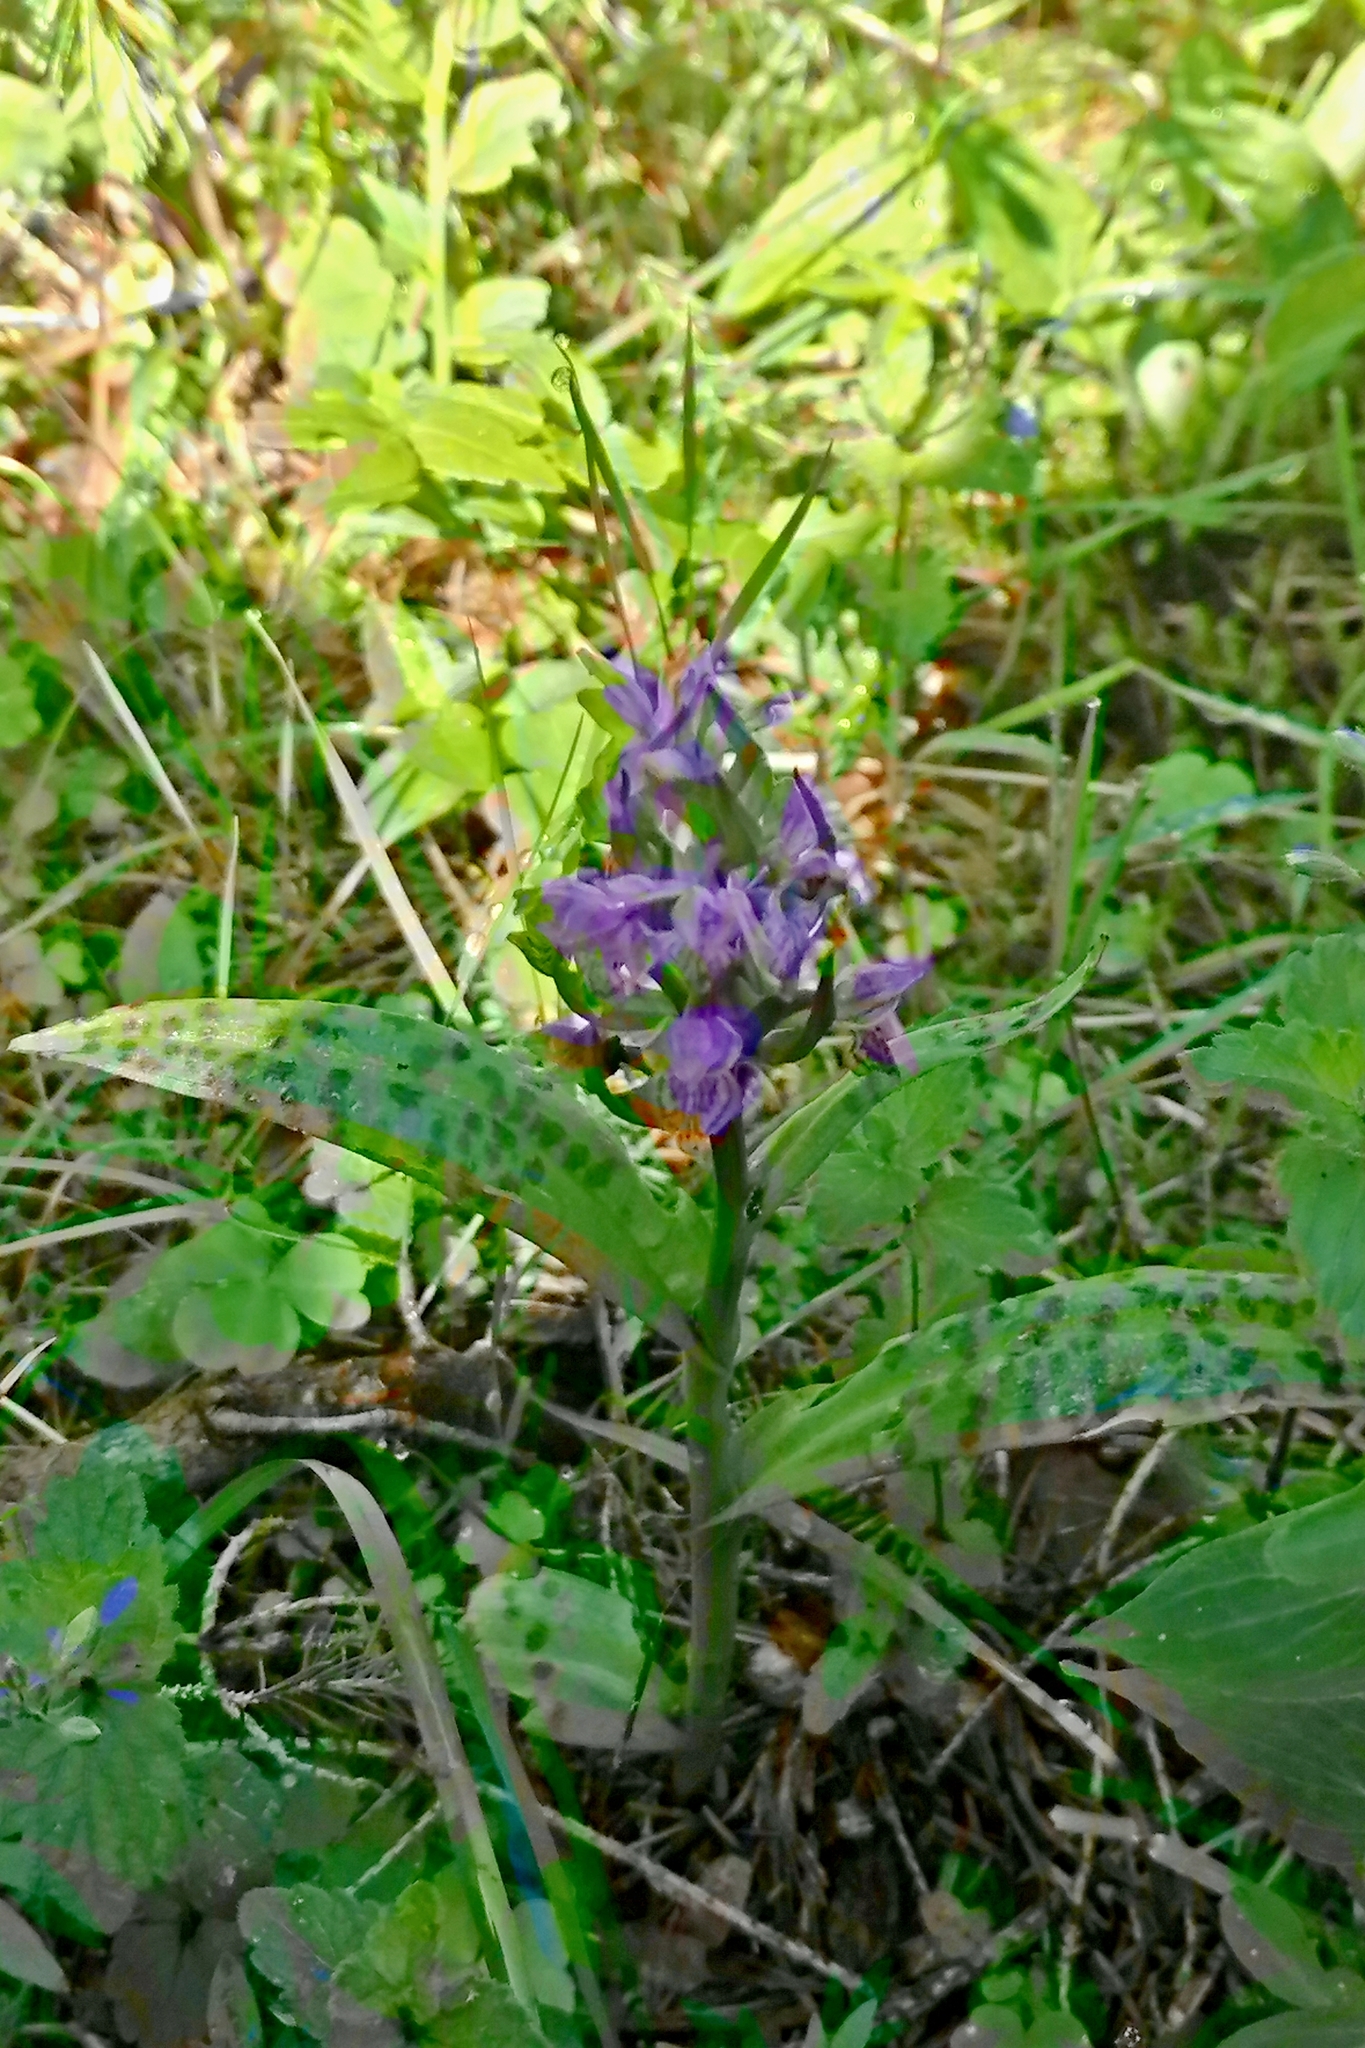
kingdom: Plantae
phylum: Tracheophyta
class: Liliopsida
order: Asparagales
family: Orchidaceae
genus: Dactylorhiza
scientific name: Dactylorhiza majalis
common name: Marsh orchid
